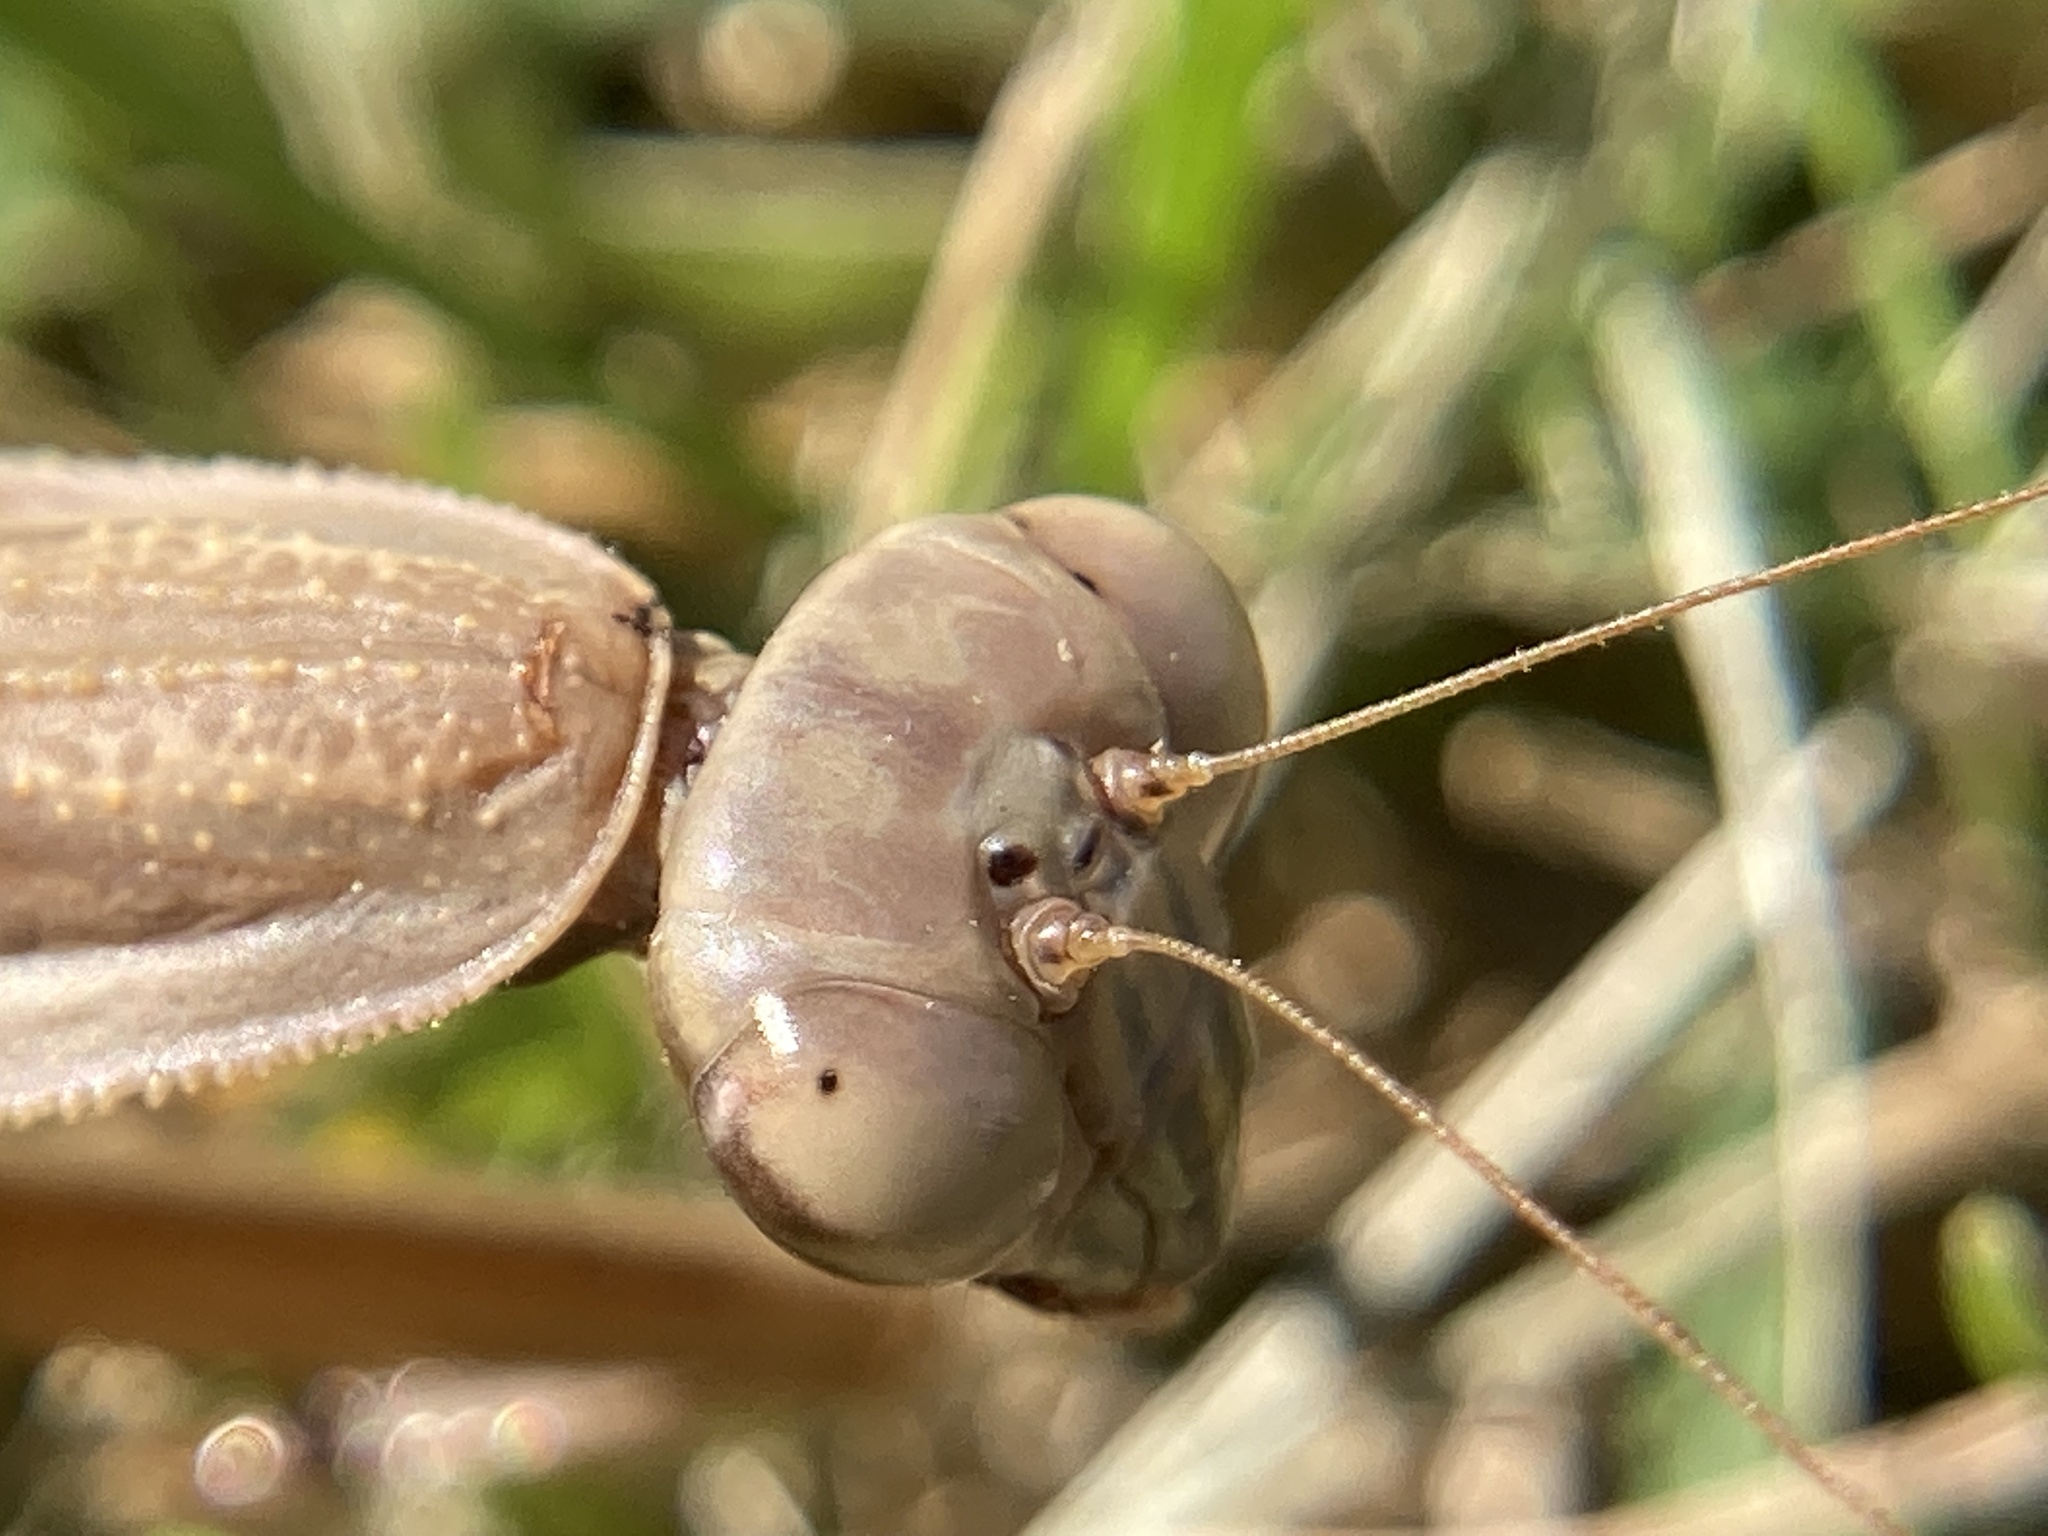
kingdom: Animalia
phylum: Arthropoda
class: Insecta
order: Mantodea
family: Mantidae
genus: Tenodera
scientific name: Tenodera sinensis
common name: Chinese mantis
